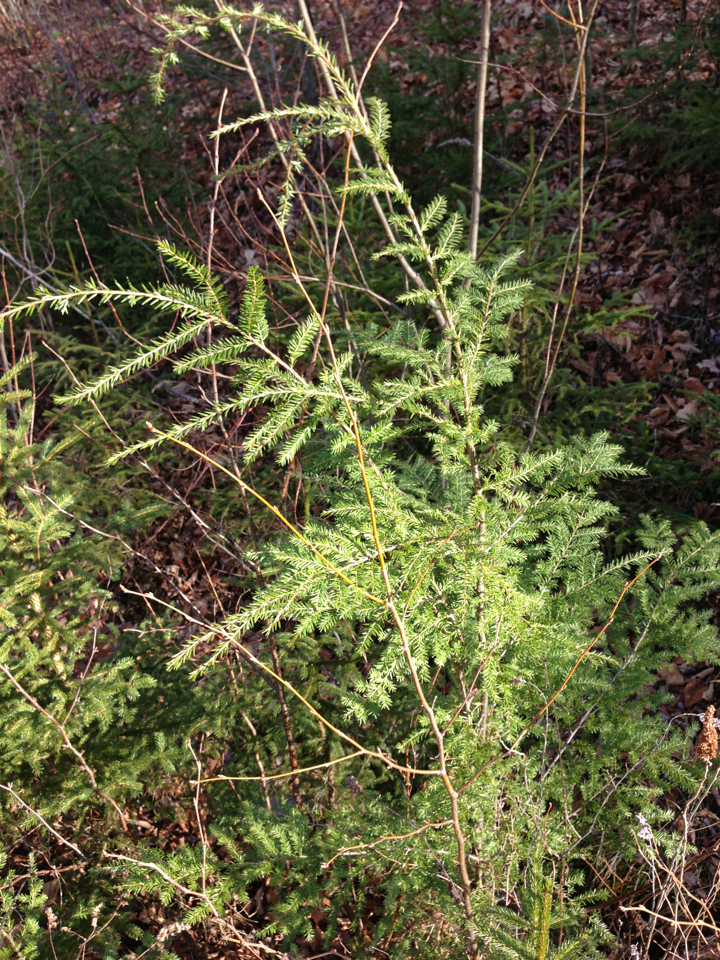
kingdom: Plantae
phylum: Tracheophyta
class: Pinopsida
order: Pinales
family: Pinaceae
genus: Tsuga
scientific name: Tsuga canadensis
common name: Eastern hemlock
